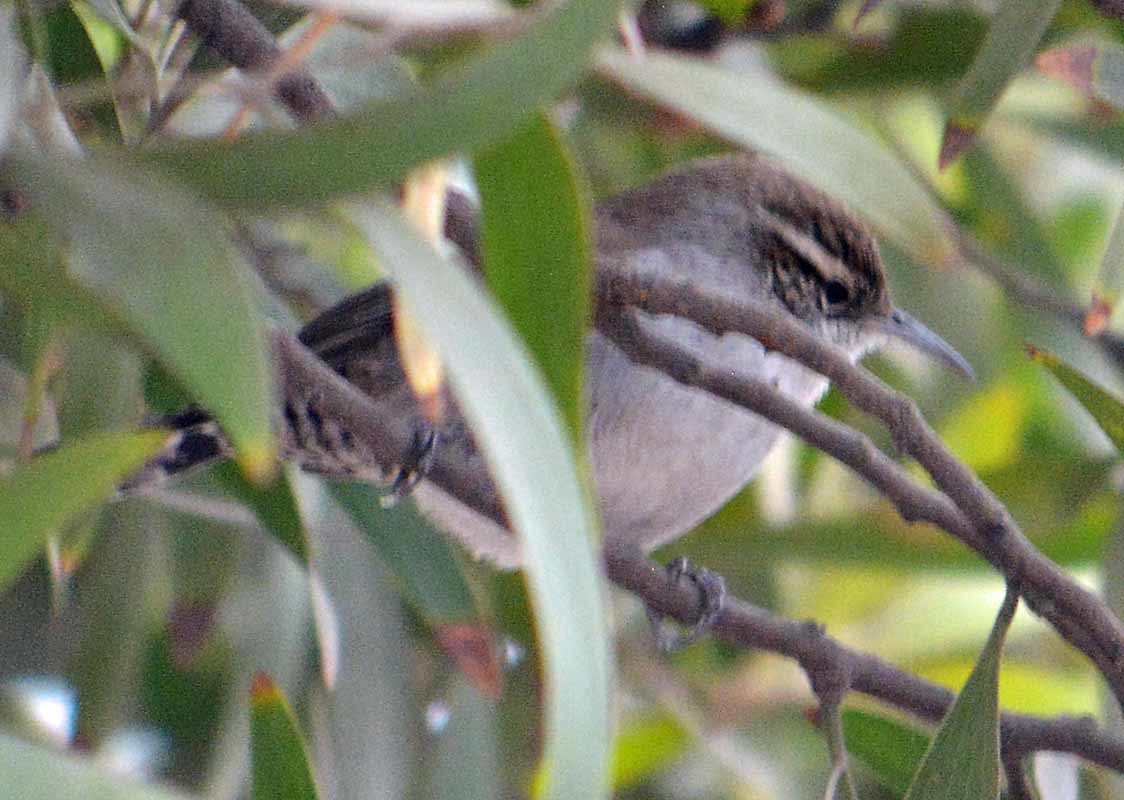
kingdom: Animalia
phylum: Chordata
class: Aves
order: Passeriformes
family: Troglodytidae
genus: Thryomanes
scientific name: Thryomanes bewickii
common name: Bewick's wren
